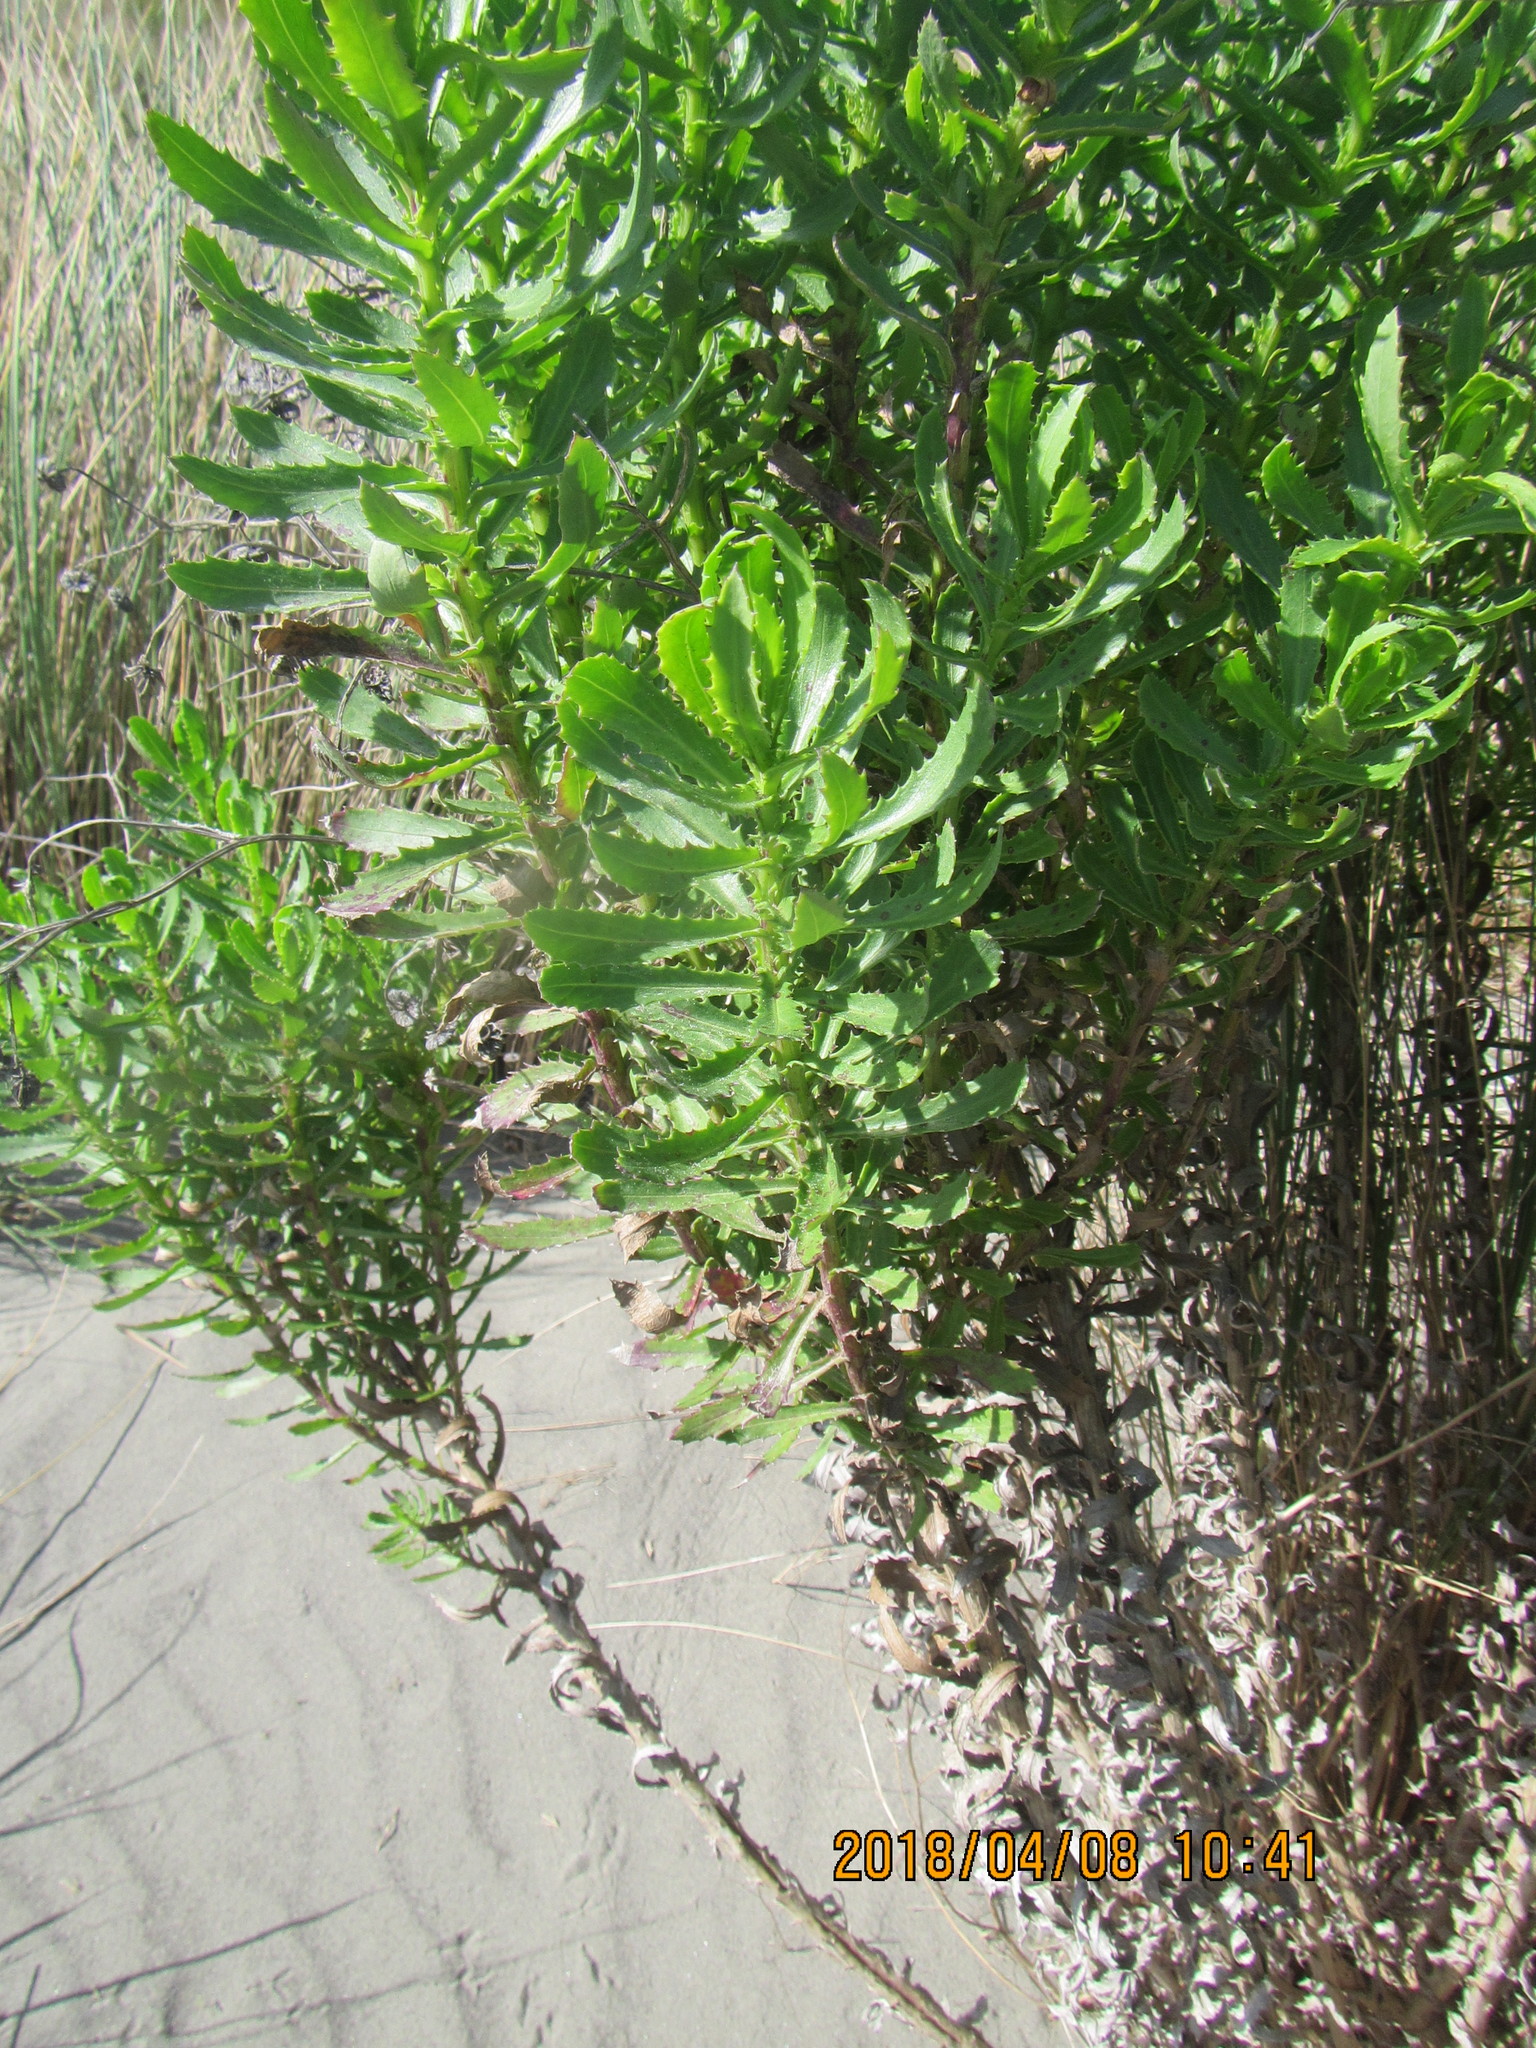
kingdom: Plantae
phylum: Tracheophyta
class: Magnoliopsida
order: Asterales
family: Asteraceae
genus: Senecio
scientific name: Senecio glastifolius
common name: Woad-leaved ragwort
